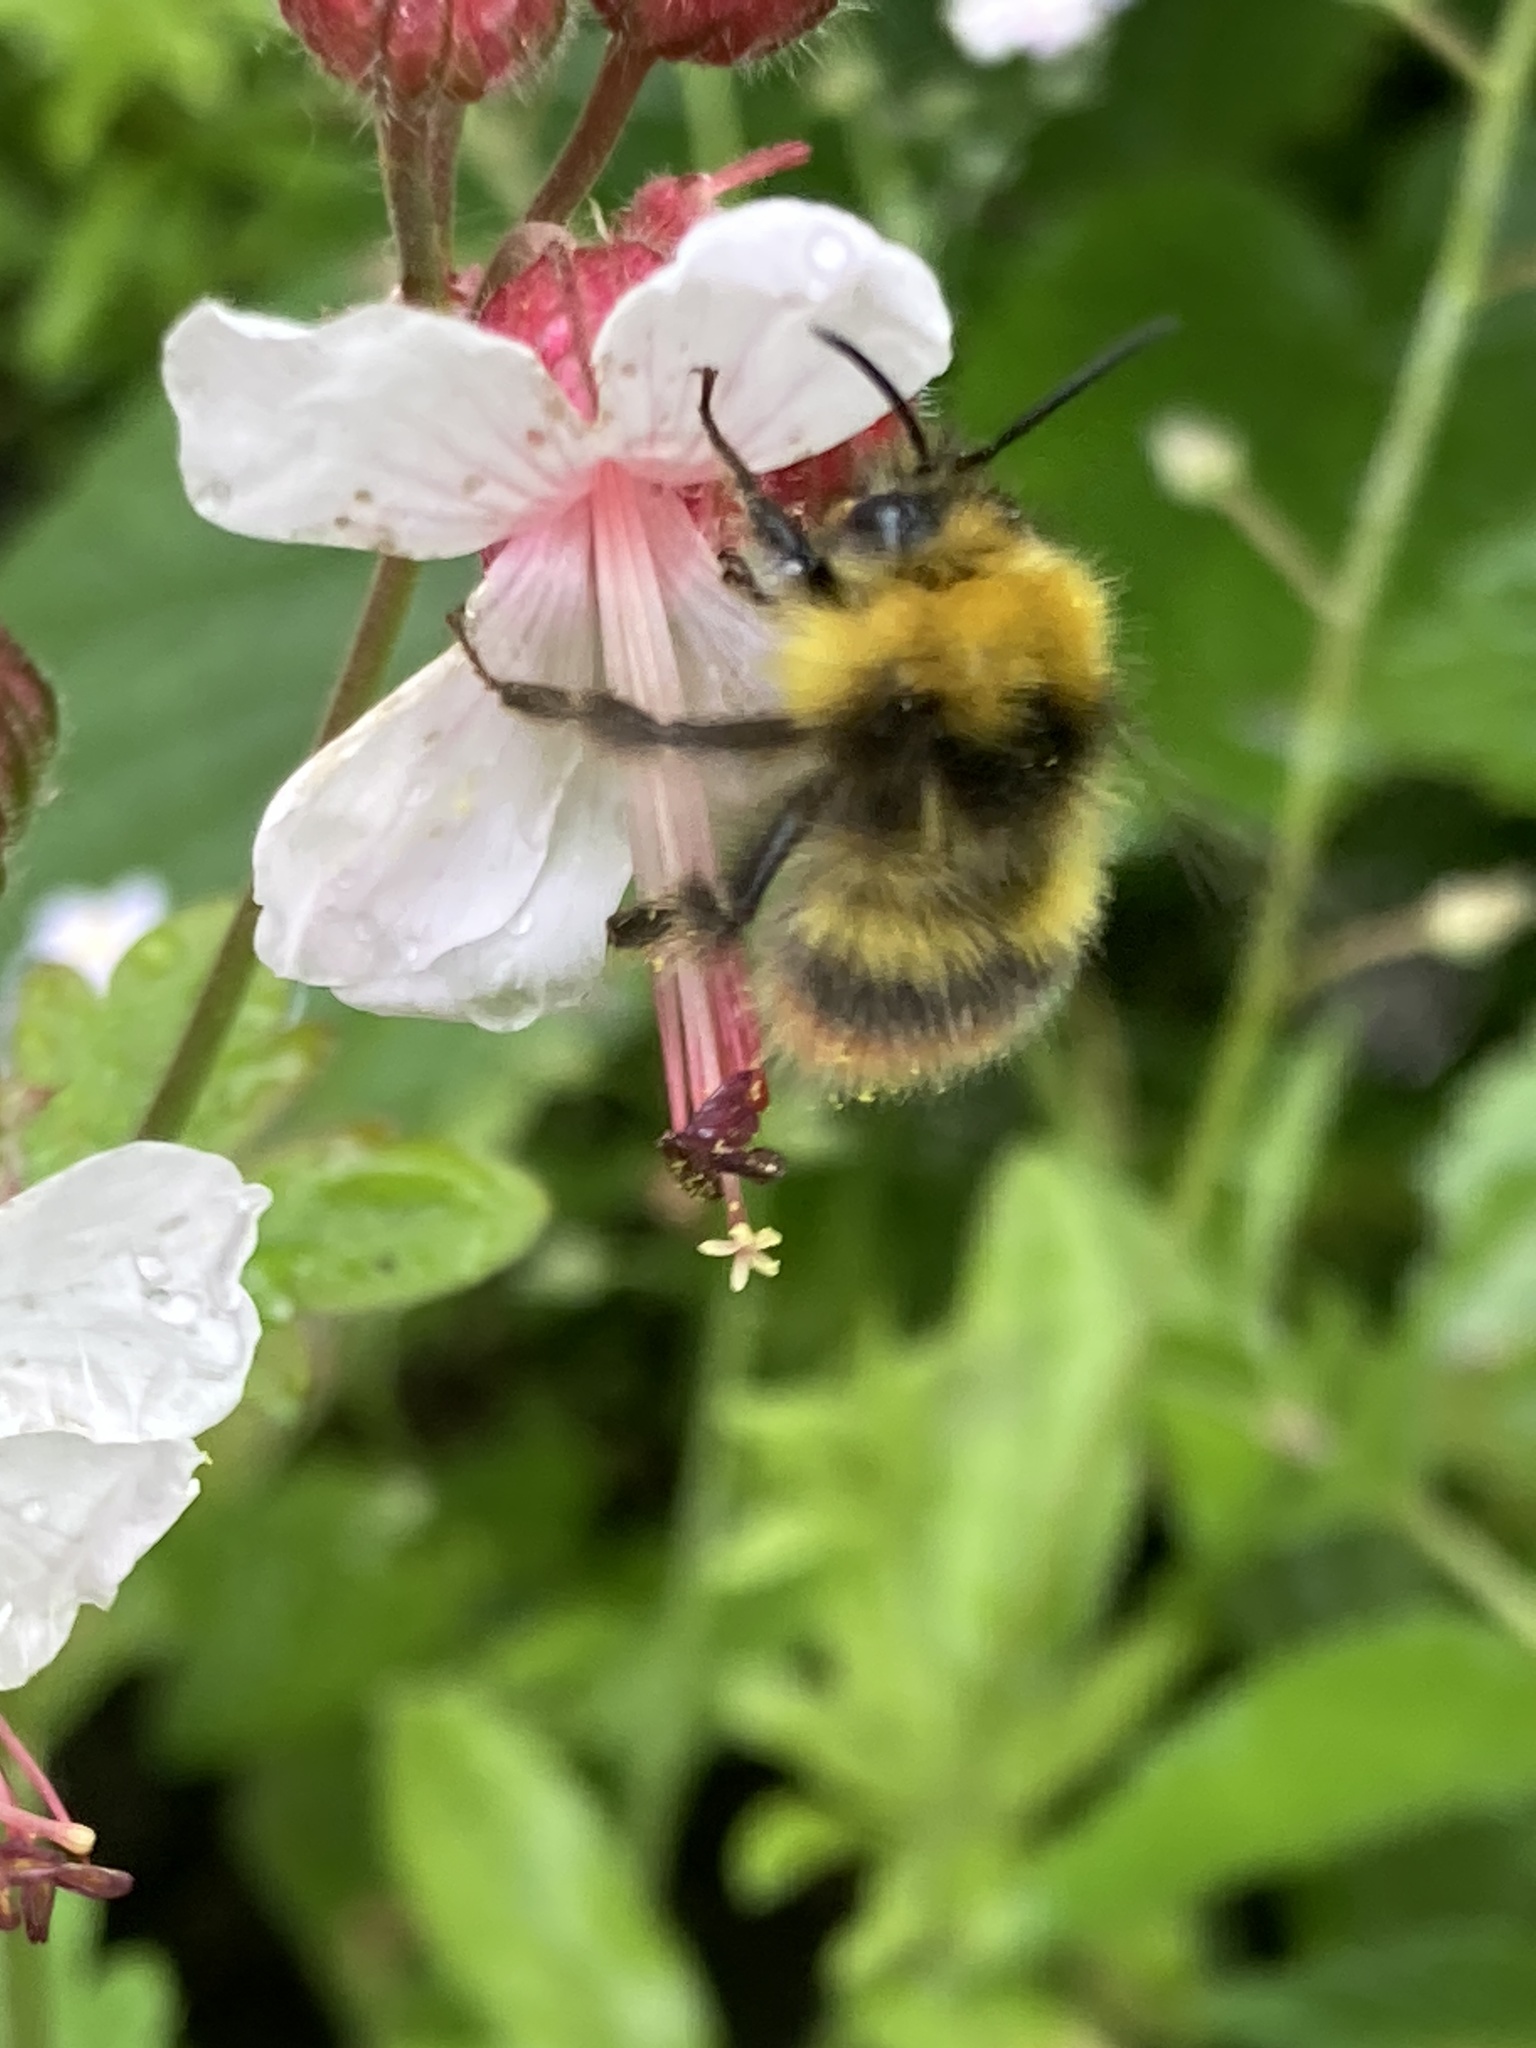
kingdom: Animalia
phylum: Arthropoda
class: Insecta
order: Hymenoptera
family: Apidae
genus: Bombus
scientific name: Bombus pratorum
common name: Early humble-bee
